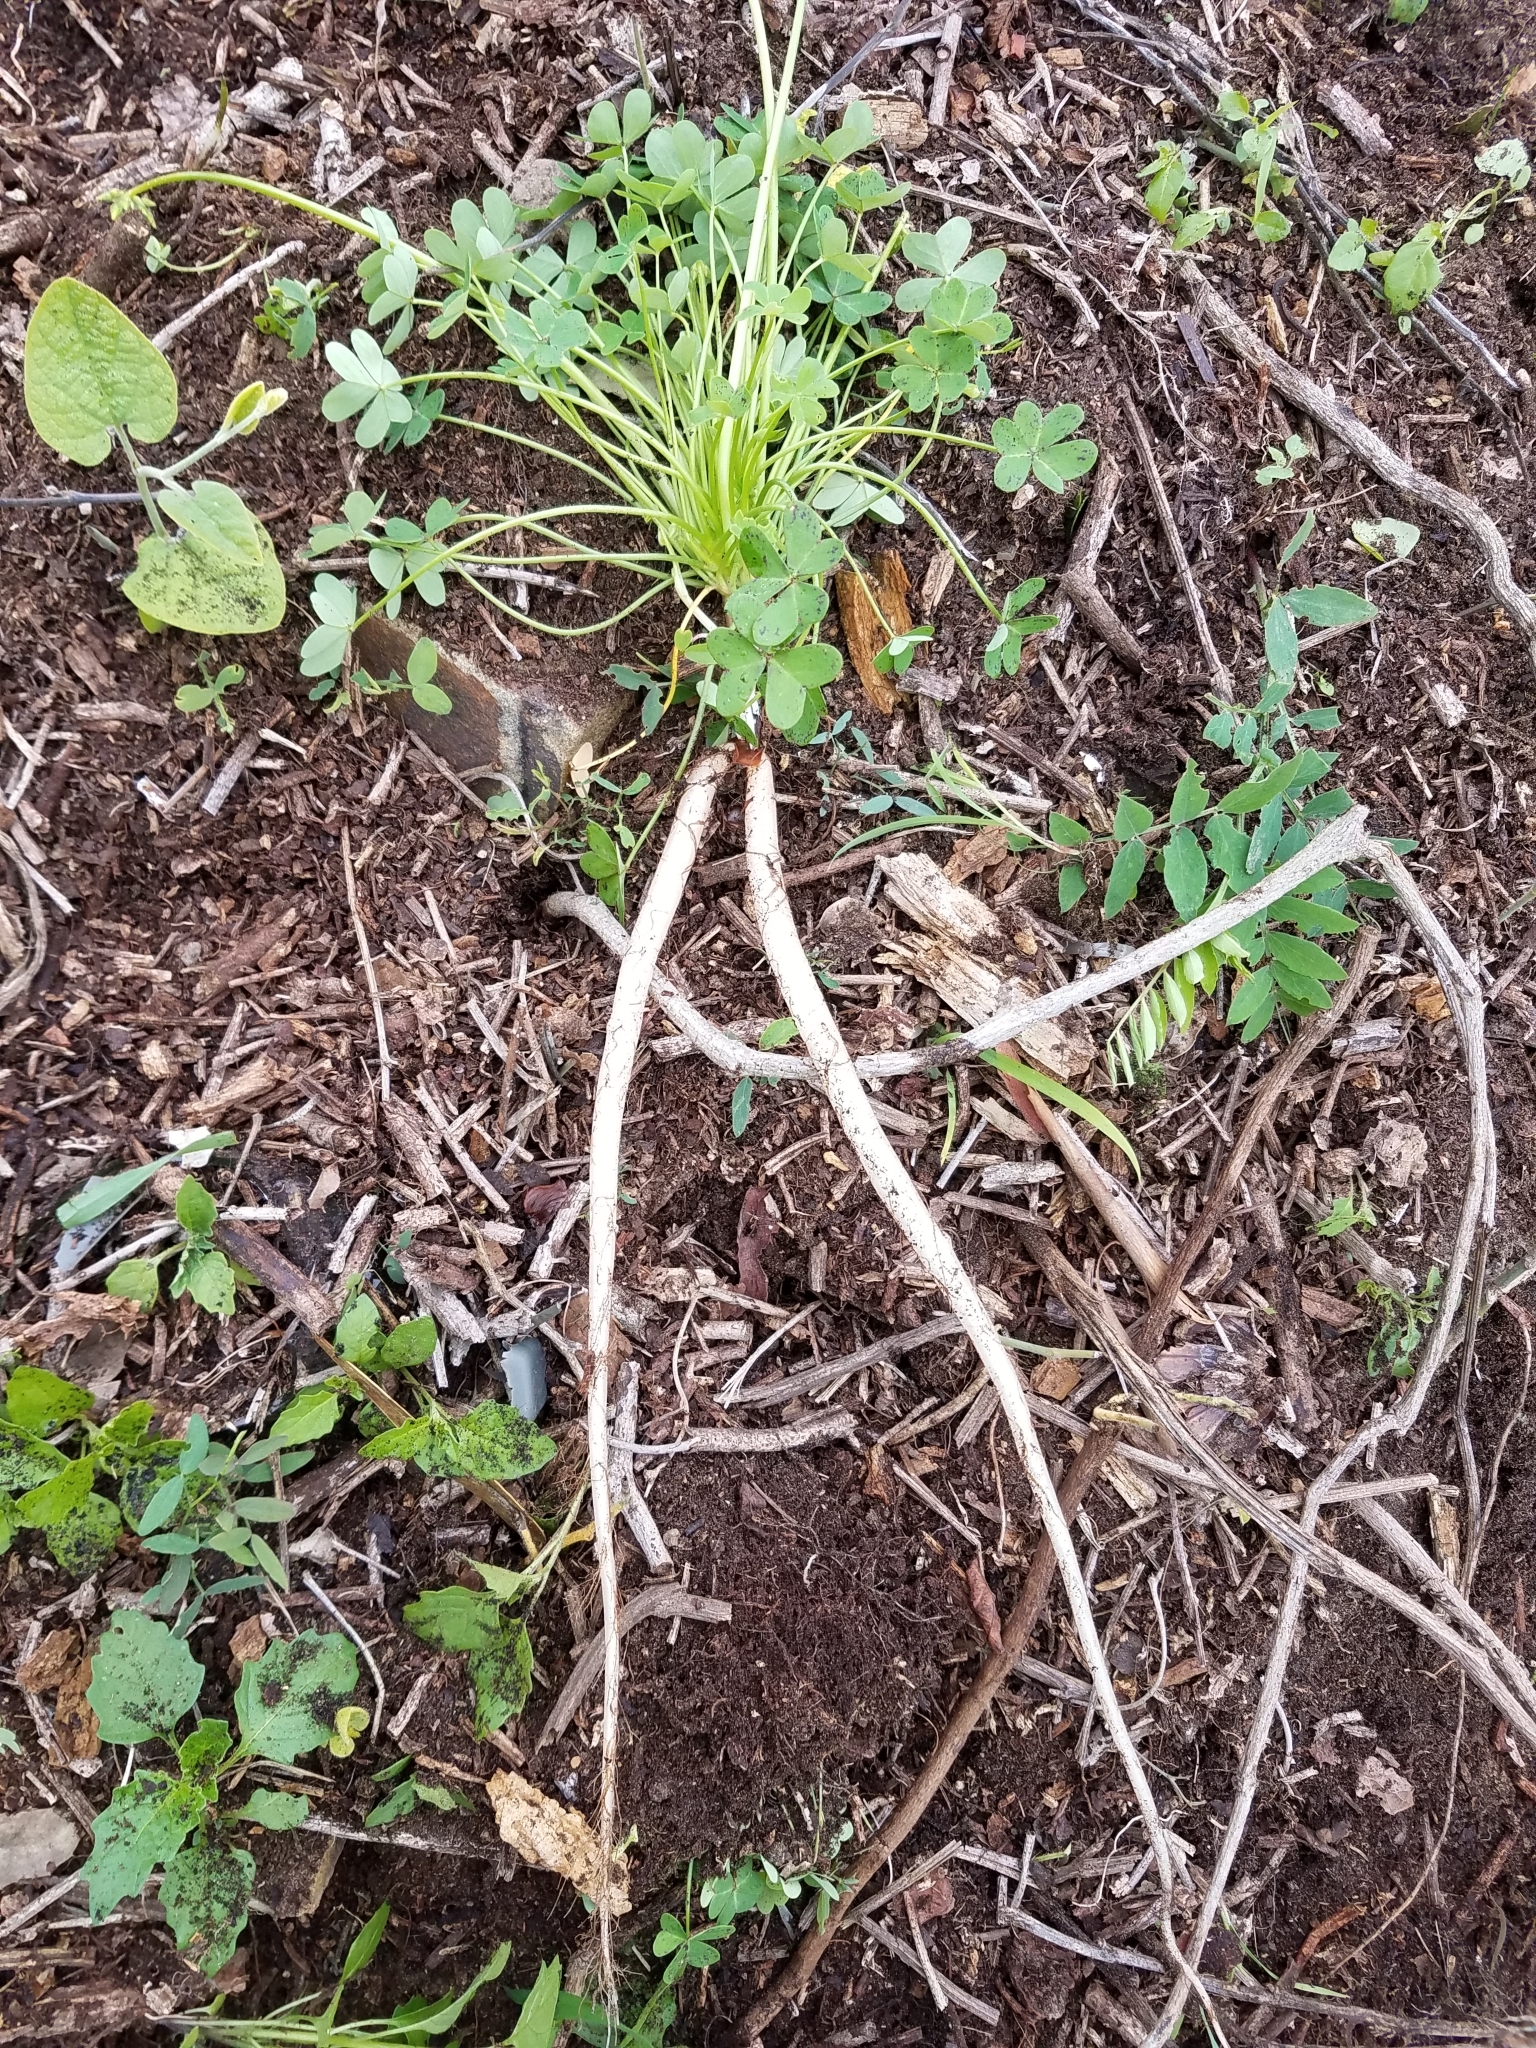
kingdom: Plantae
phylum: Tracheophyta
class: Magnoliopsida
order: Oxalidales
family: Oxalidaceae
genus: Oxalis
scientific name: Oxalis pes-caprae
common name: Bermuda-buttercup
